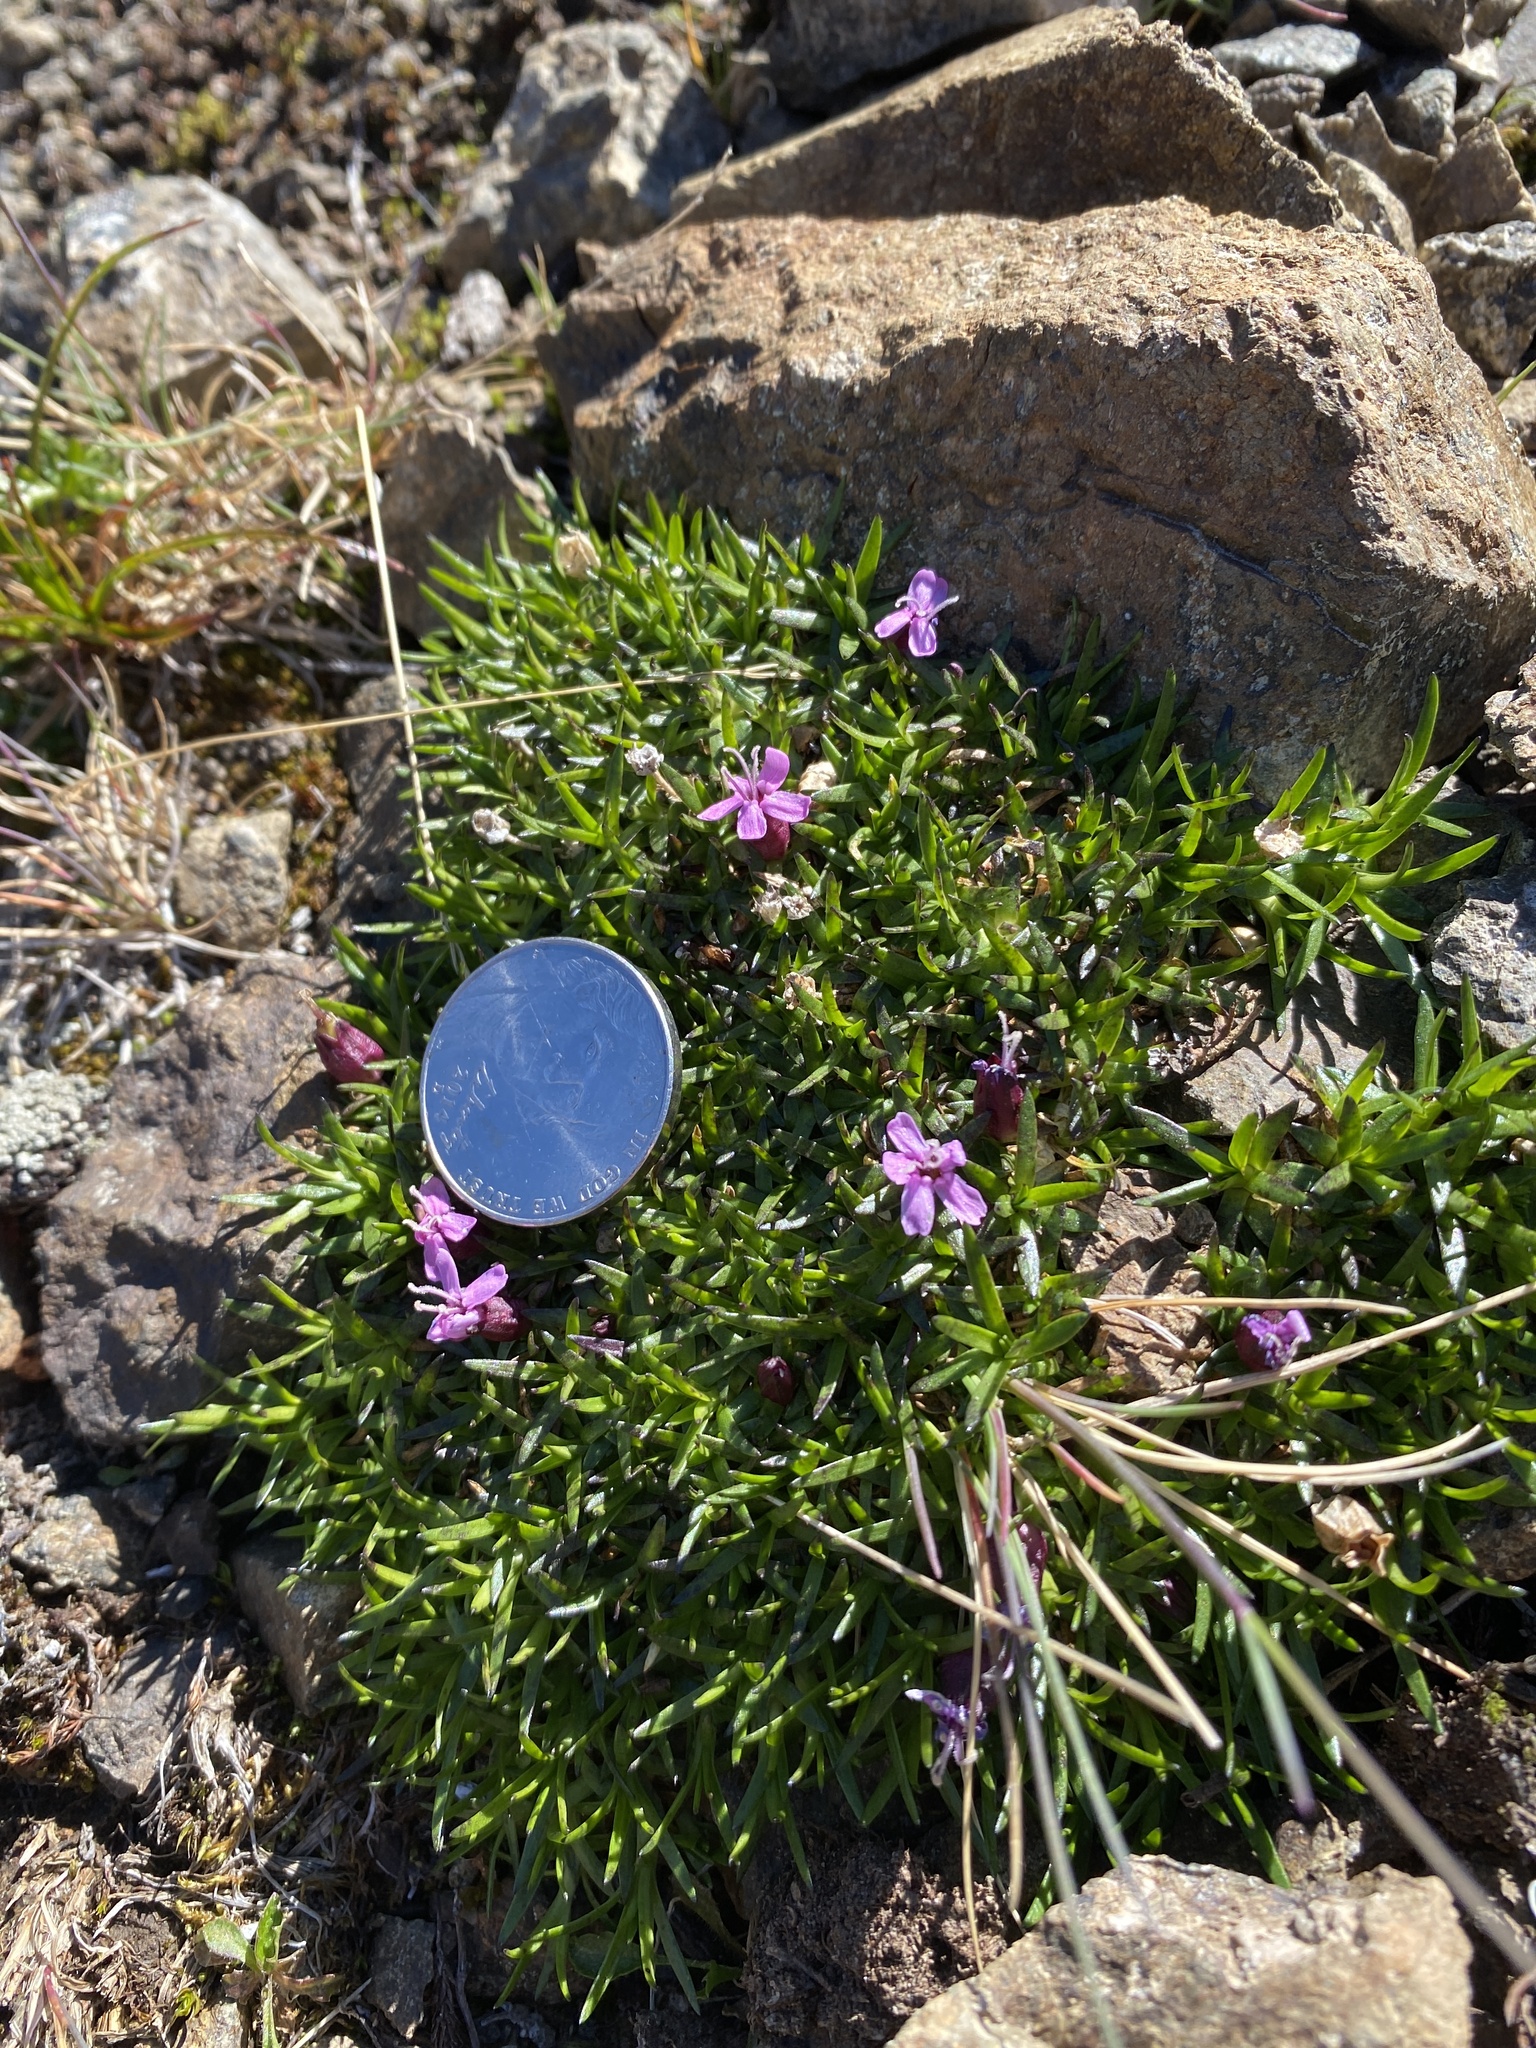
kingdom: Plantae
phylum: Tracheophyta
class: Magnoliopsida
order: Caryophyllales
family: Caryophyllaceae
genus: Silene
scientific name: Silene acaulis
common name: Moss campion
